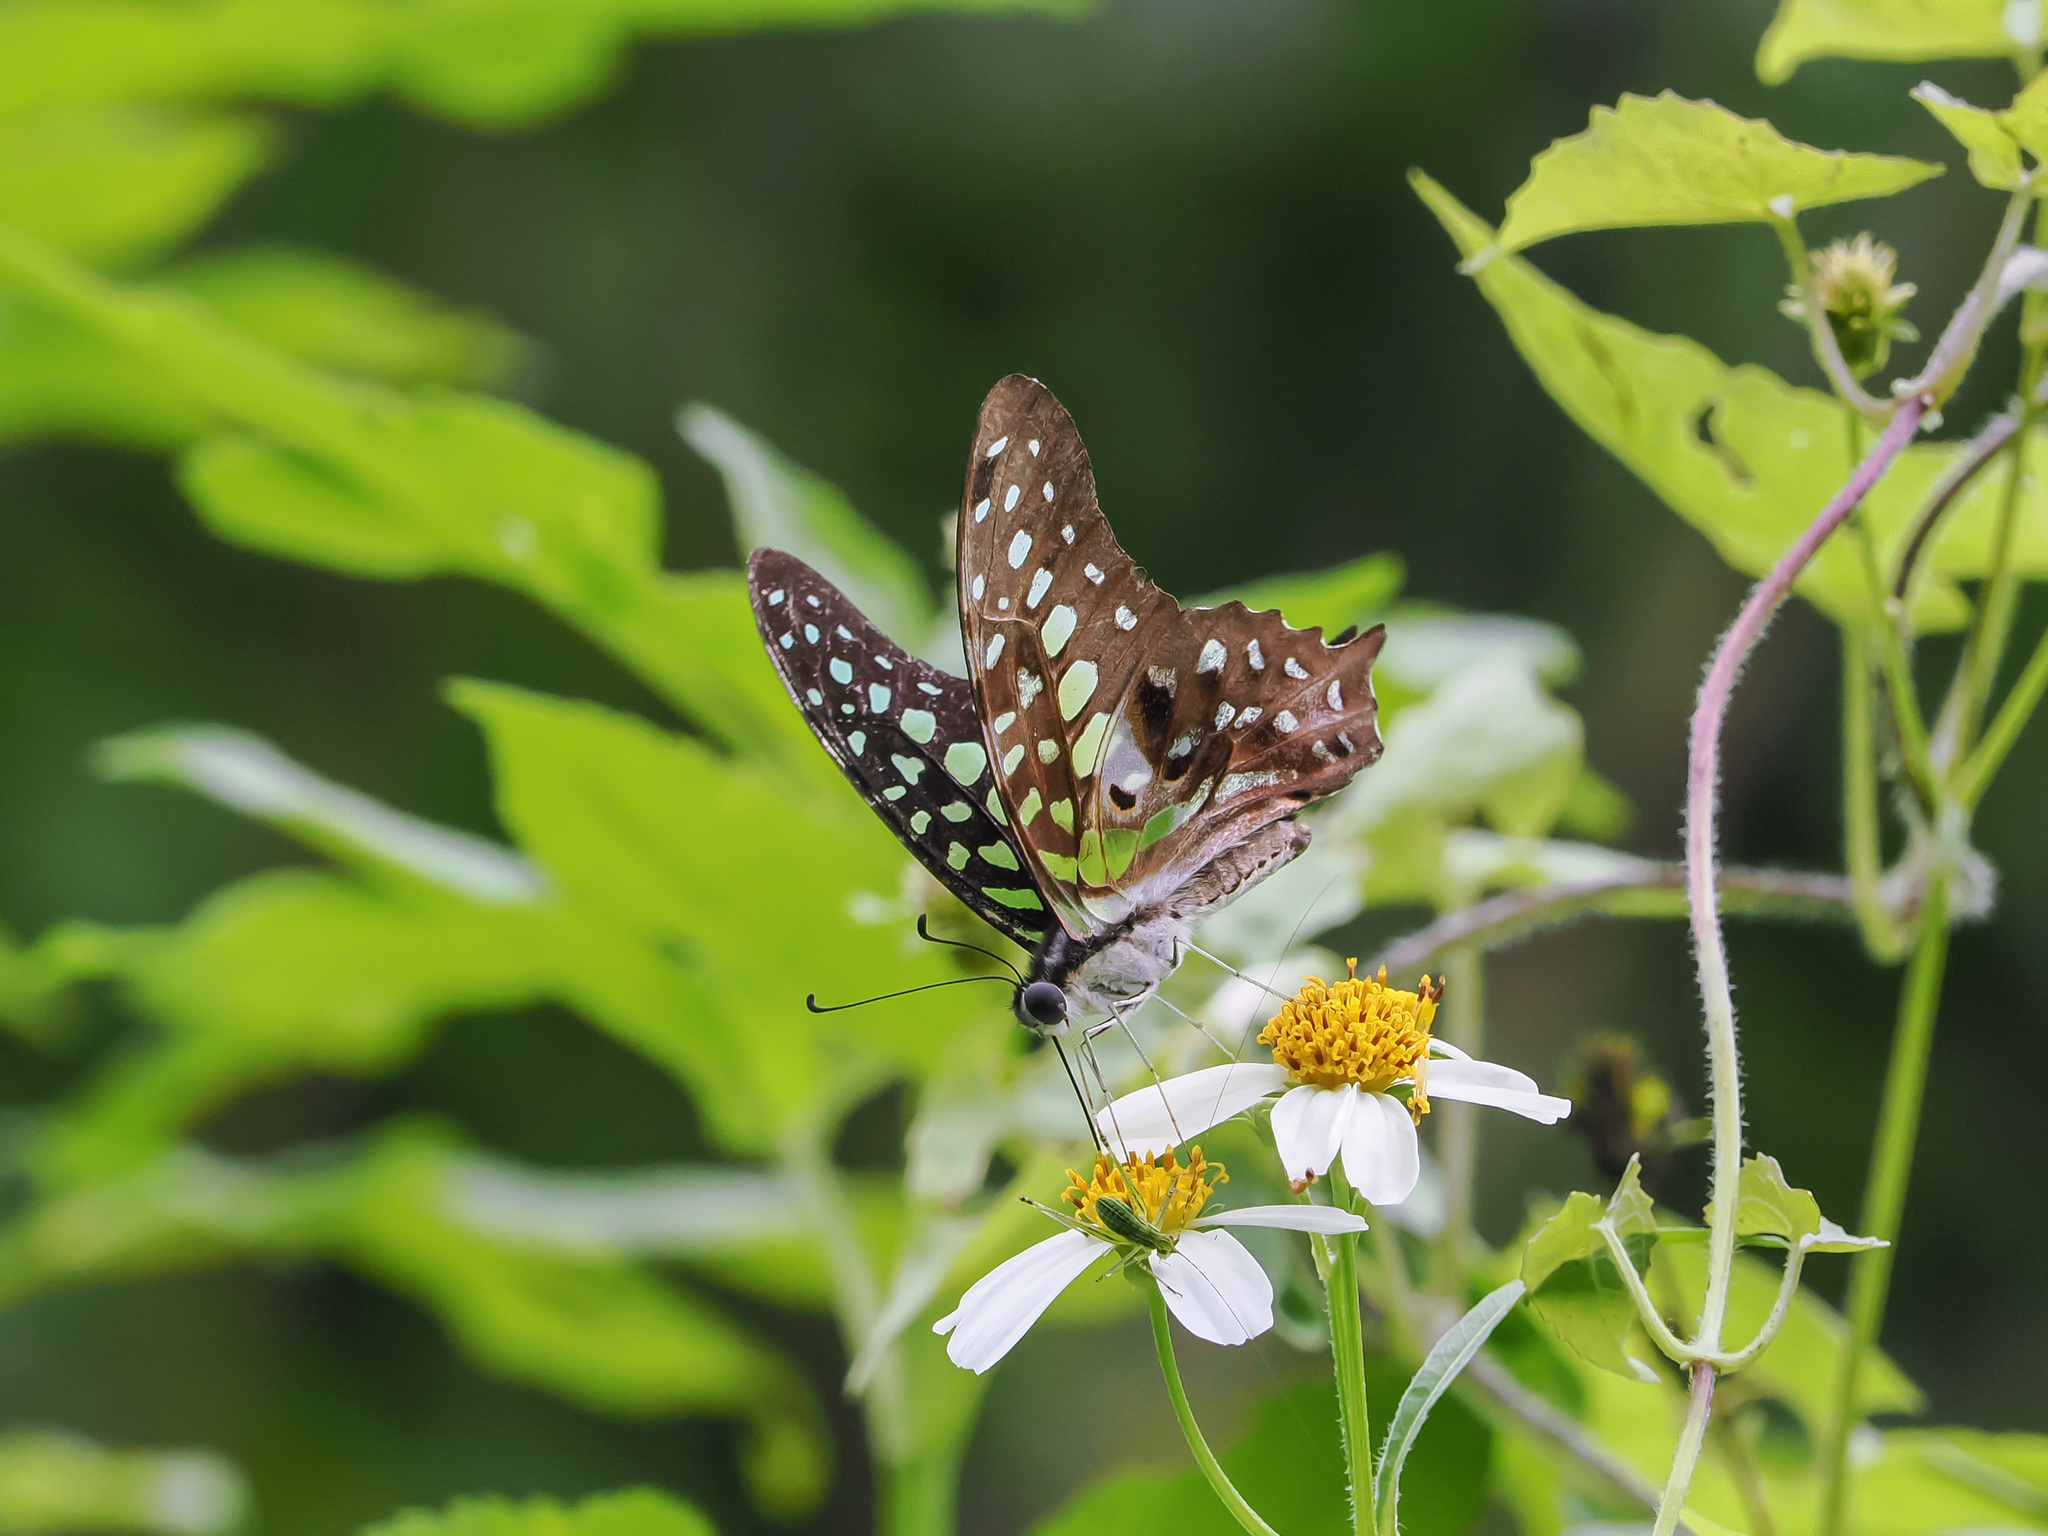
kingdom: Animalia
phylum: Arthropoda
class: Insecta
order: Lepidoptera
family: Papilionidae
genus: Graphium
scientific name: Graphium agamemnon
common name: Tailed jay
